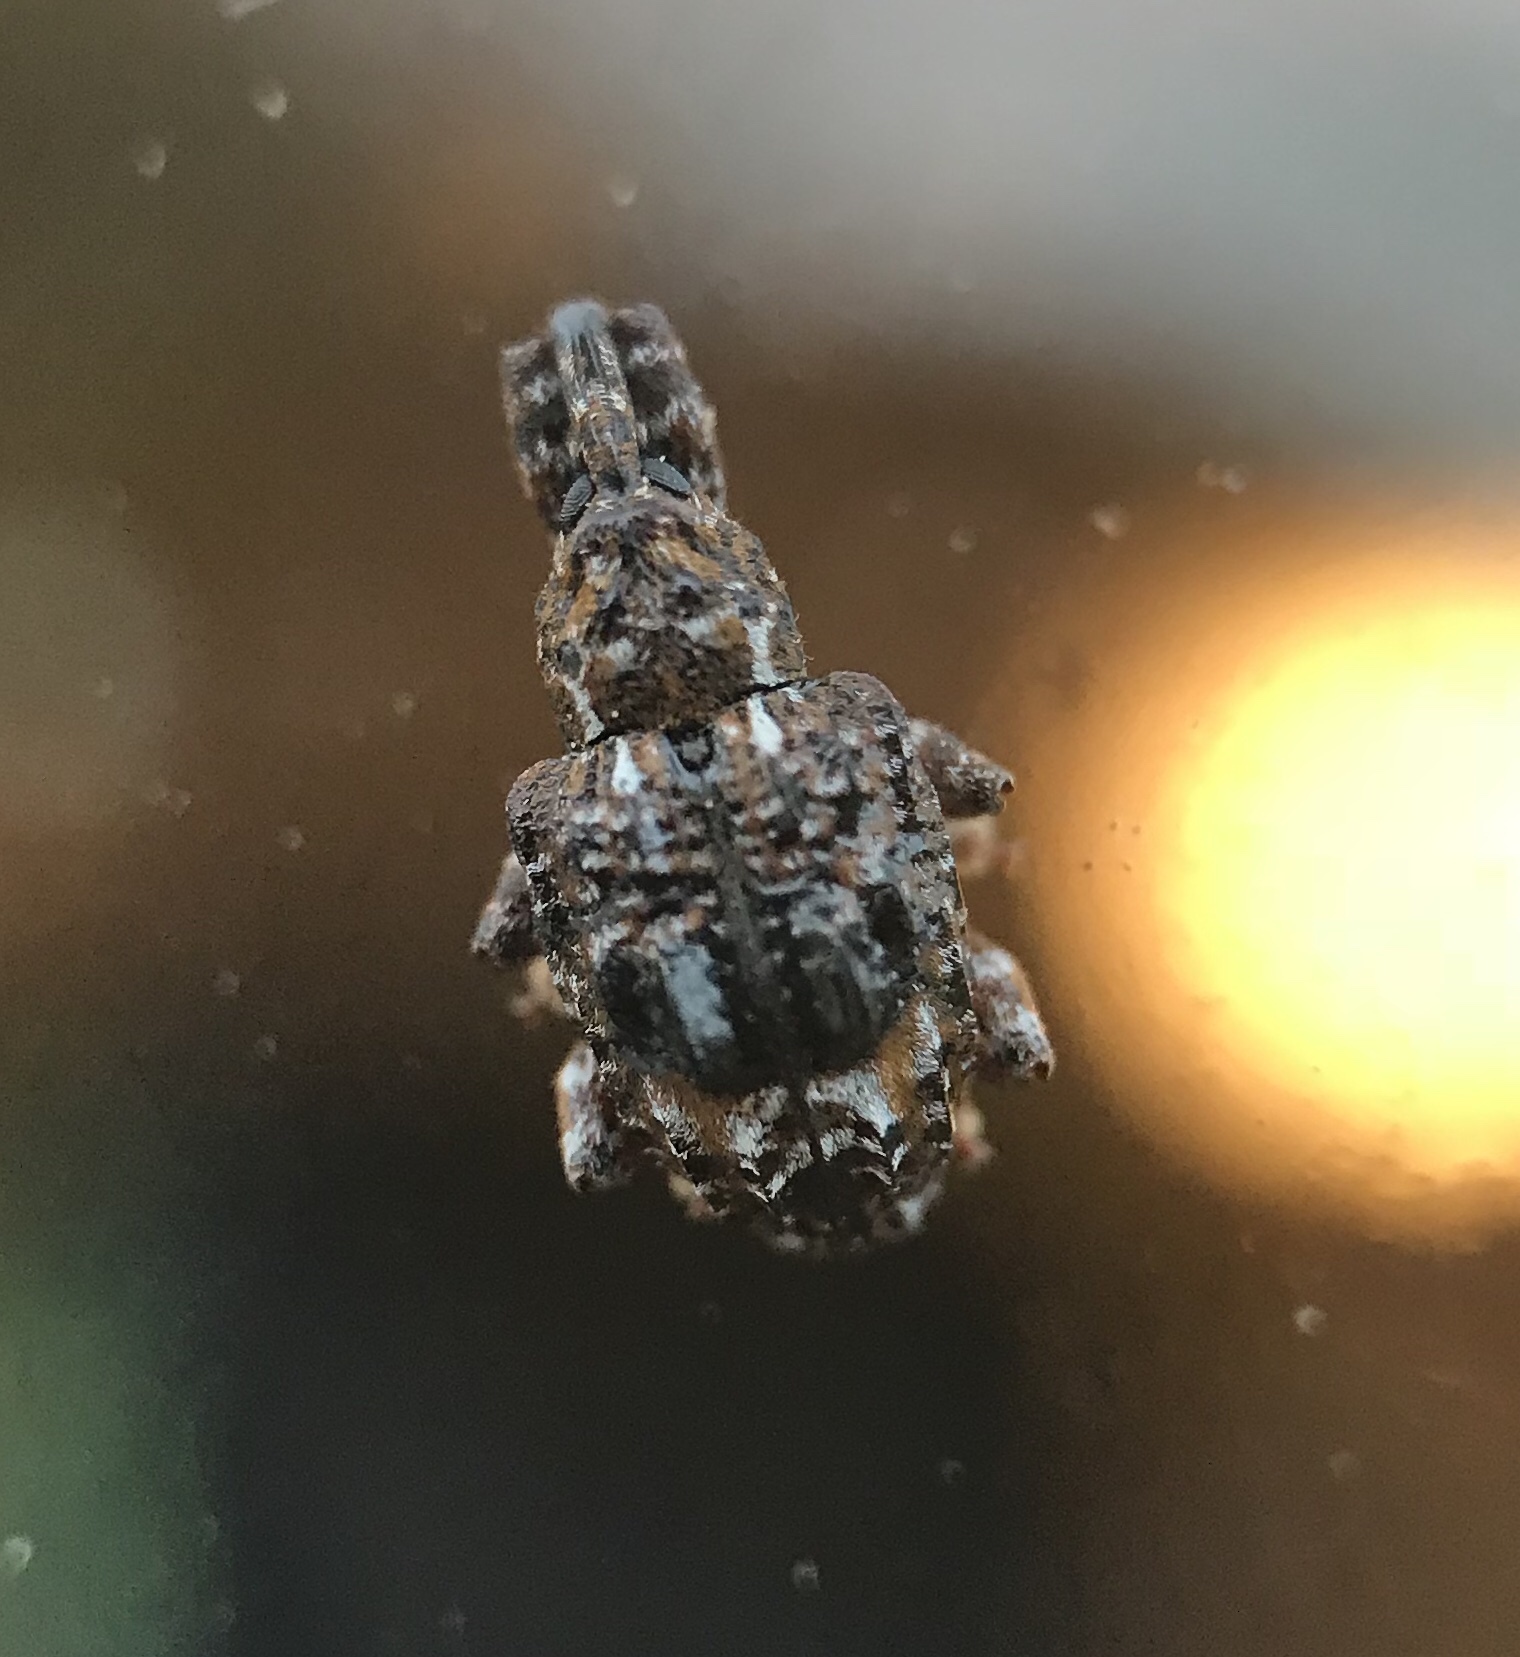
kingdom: Animalia
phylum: Arthropoda
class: Insecta
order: Coleoptera
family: Curculionidae
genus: Conotrachelus
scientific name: Conotrachelus nenuphar
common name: Plum curculio
